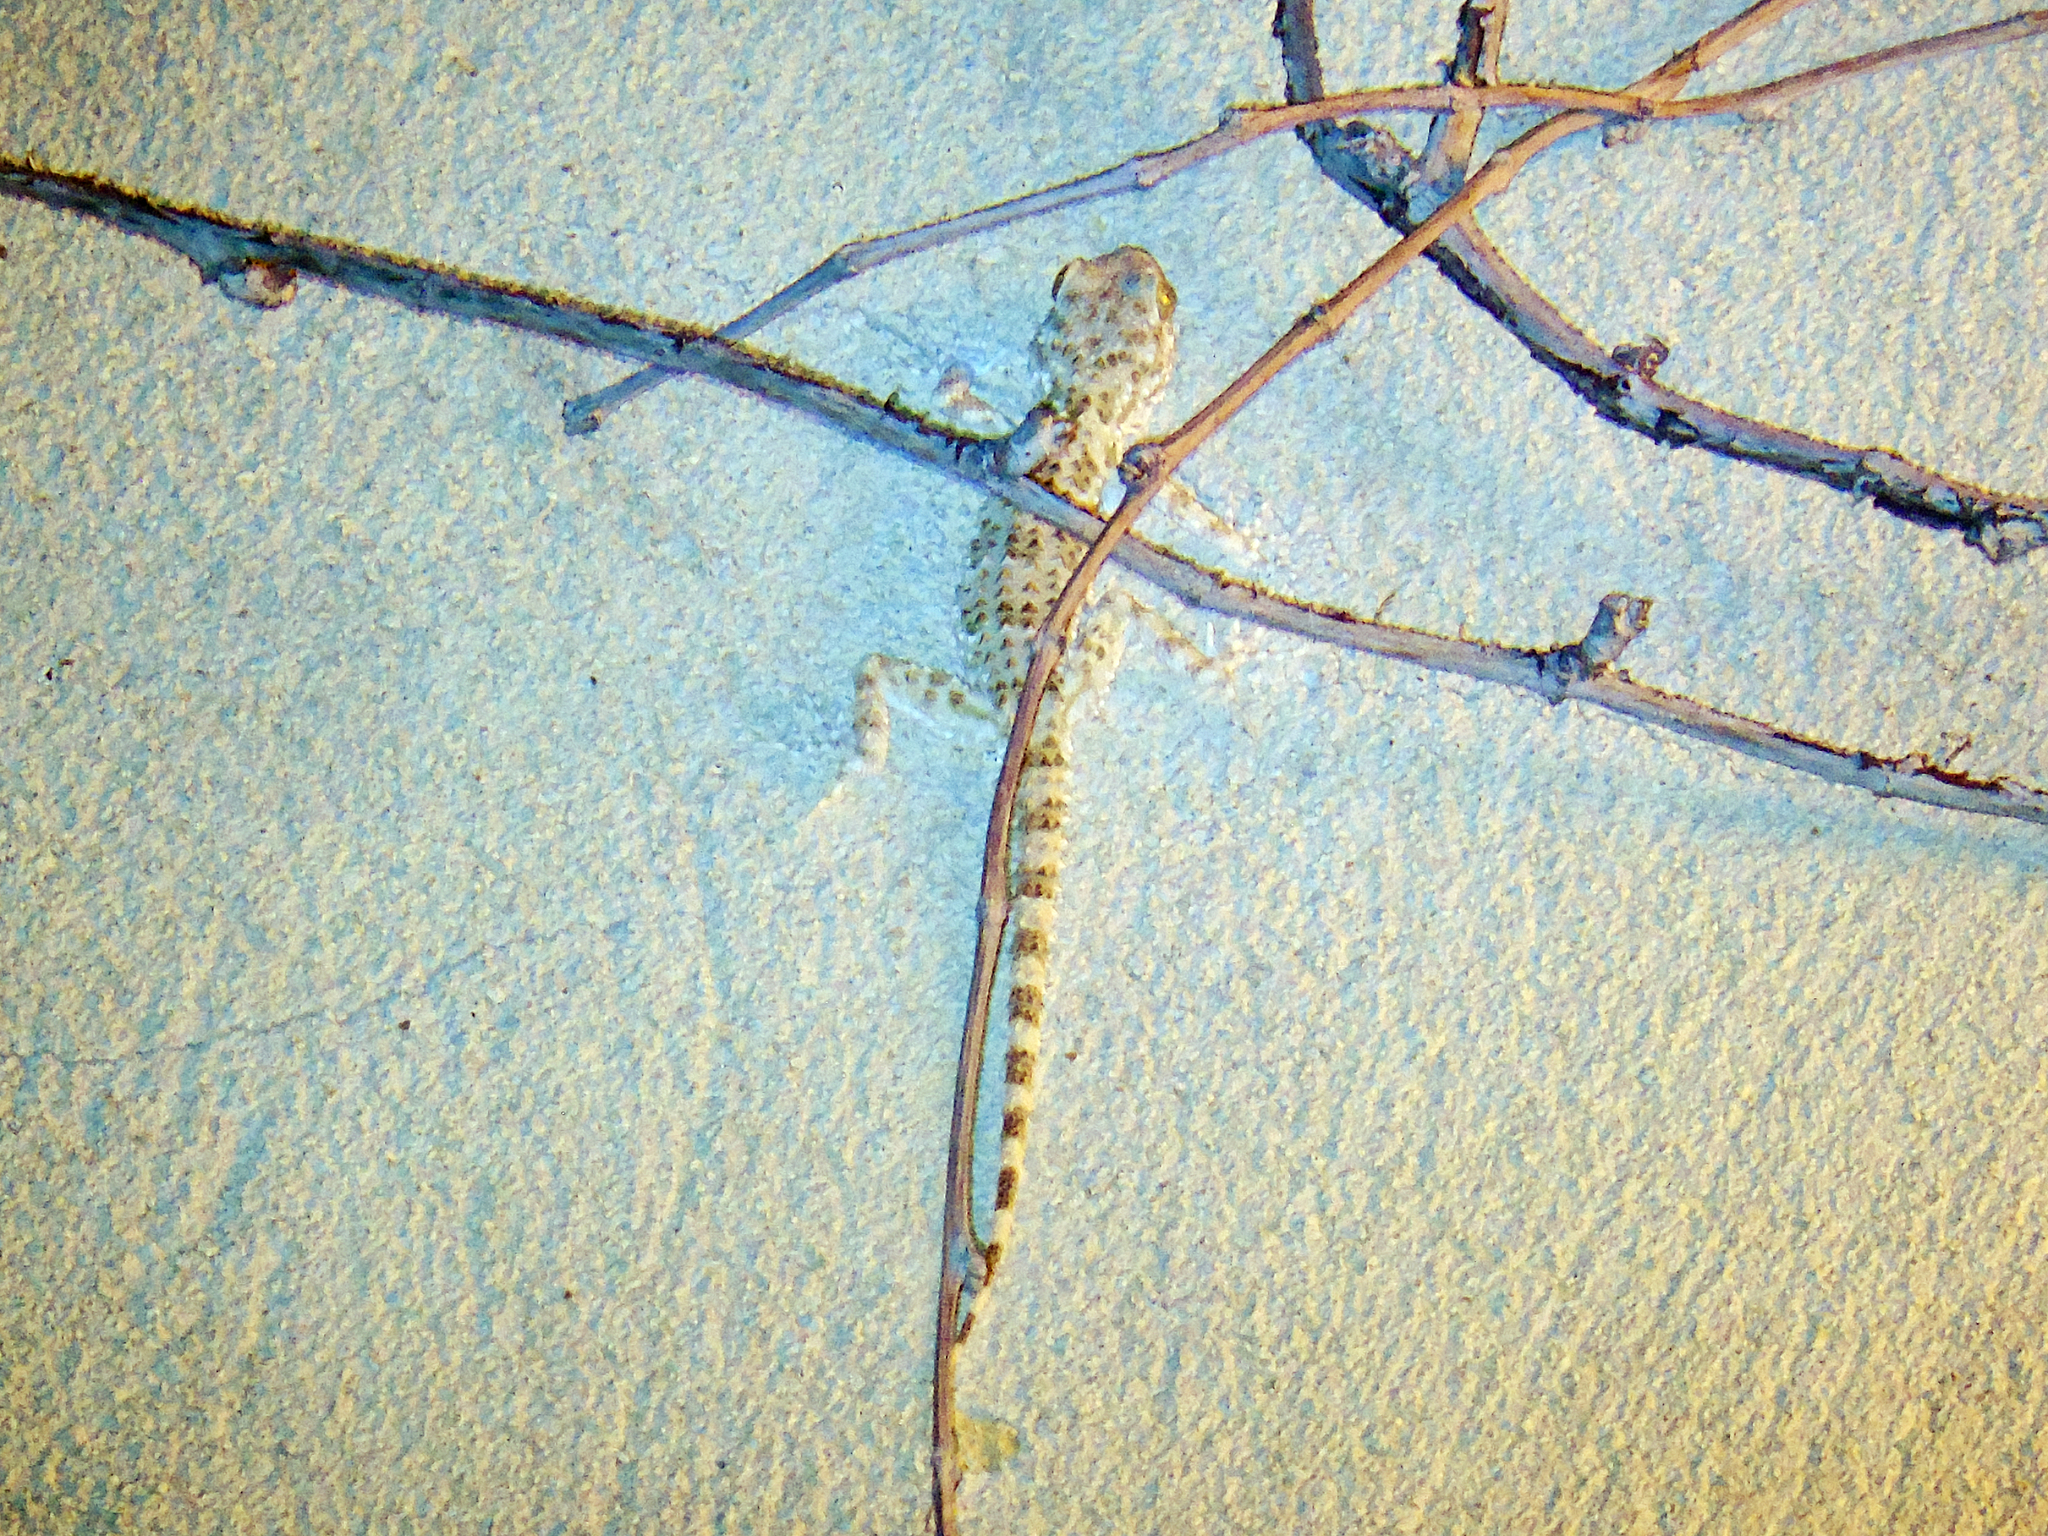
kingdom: Animalia
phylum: Chordata
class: Squamata
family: Gekkonidae
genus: Tenuidactylus
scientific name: Tenuidactylus caspius
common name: Caspian bent-toed gecko
